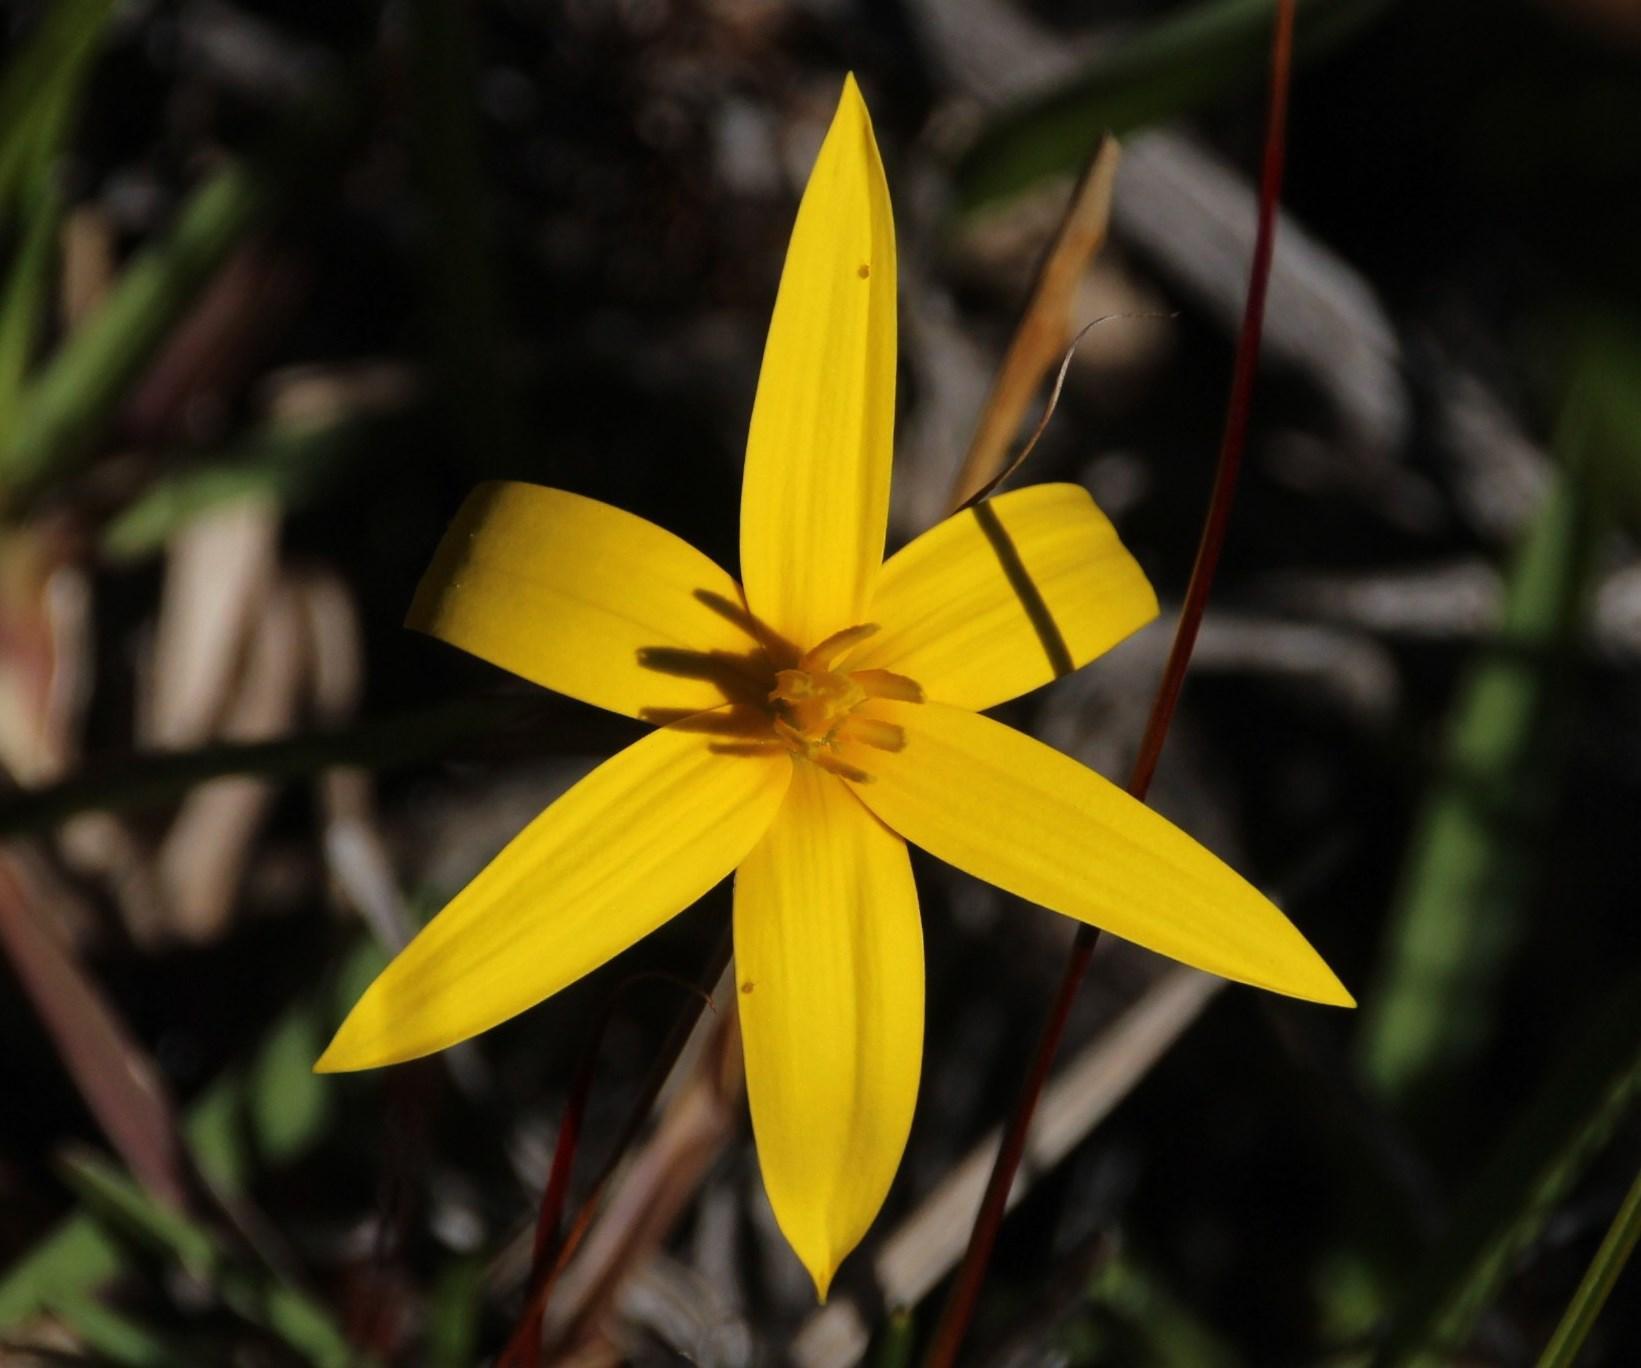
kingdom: Plantae
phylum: Tracheophyta
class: Liliopsida
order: Asparagales
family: Hypoxidaceae
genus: Pauridia
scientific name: Pauridia capensis
